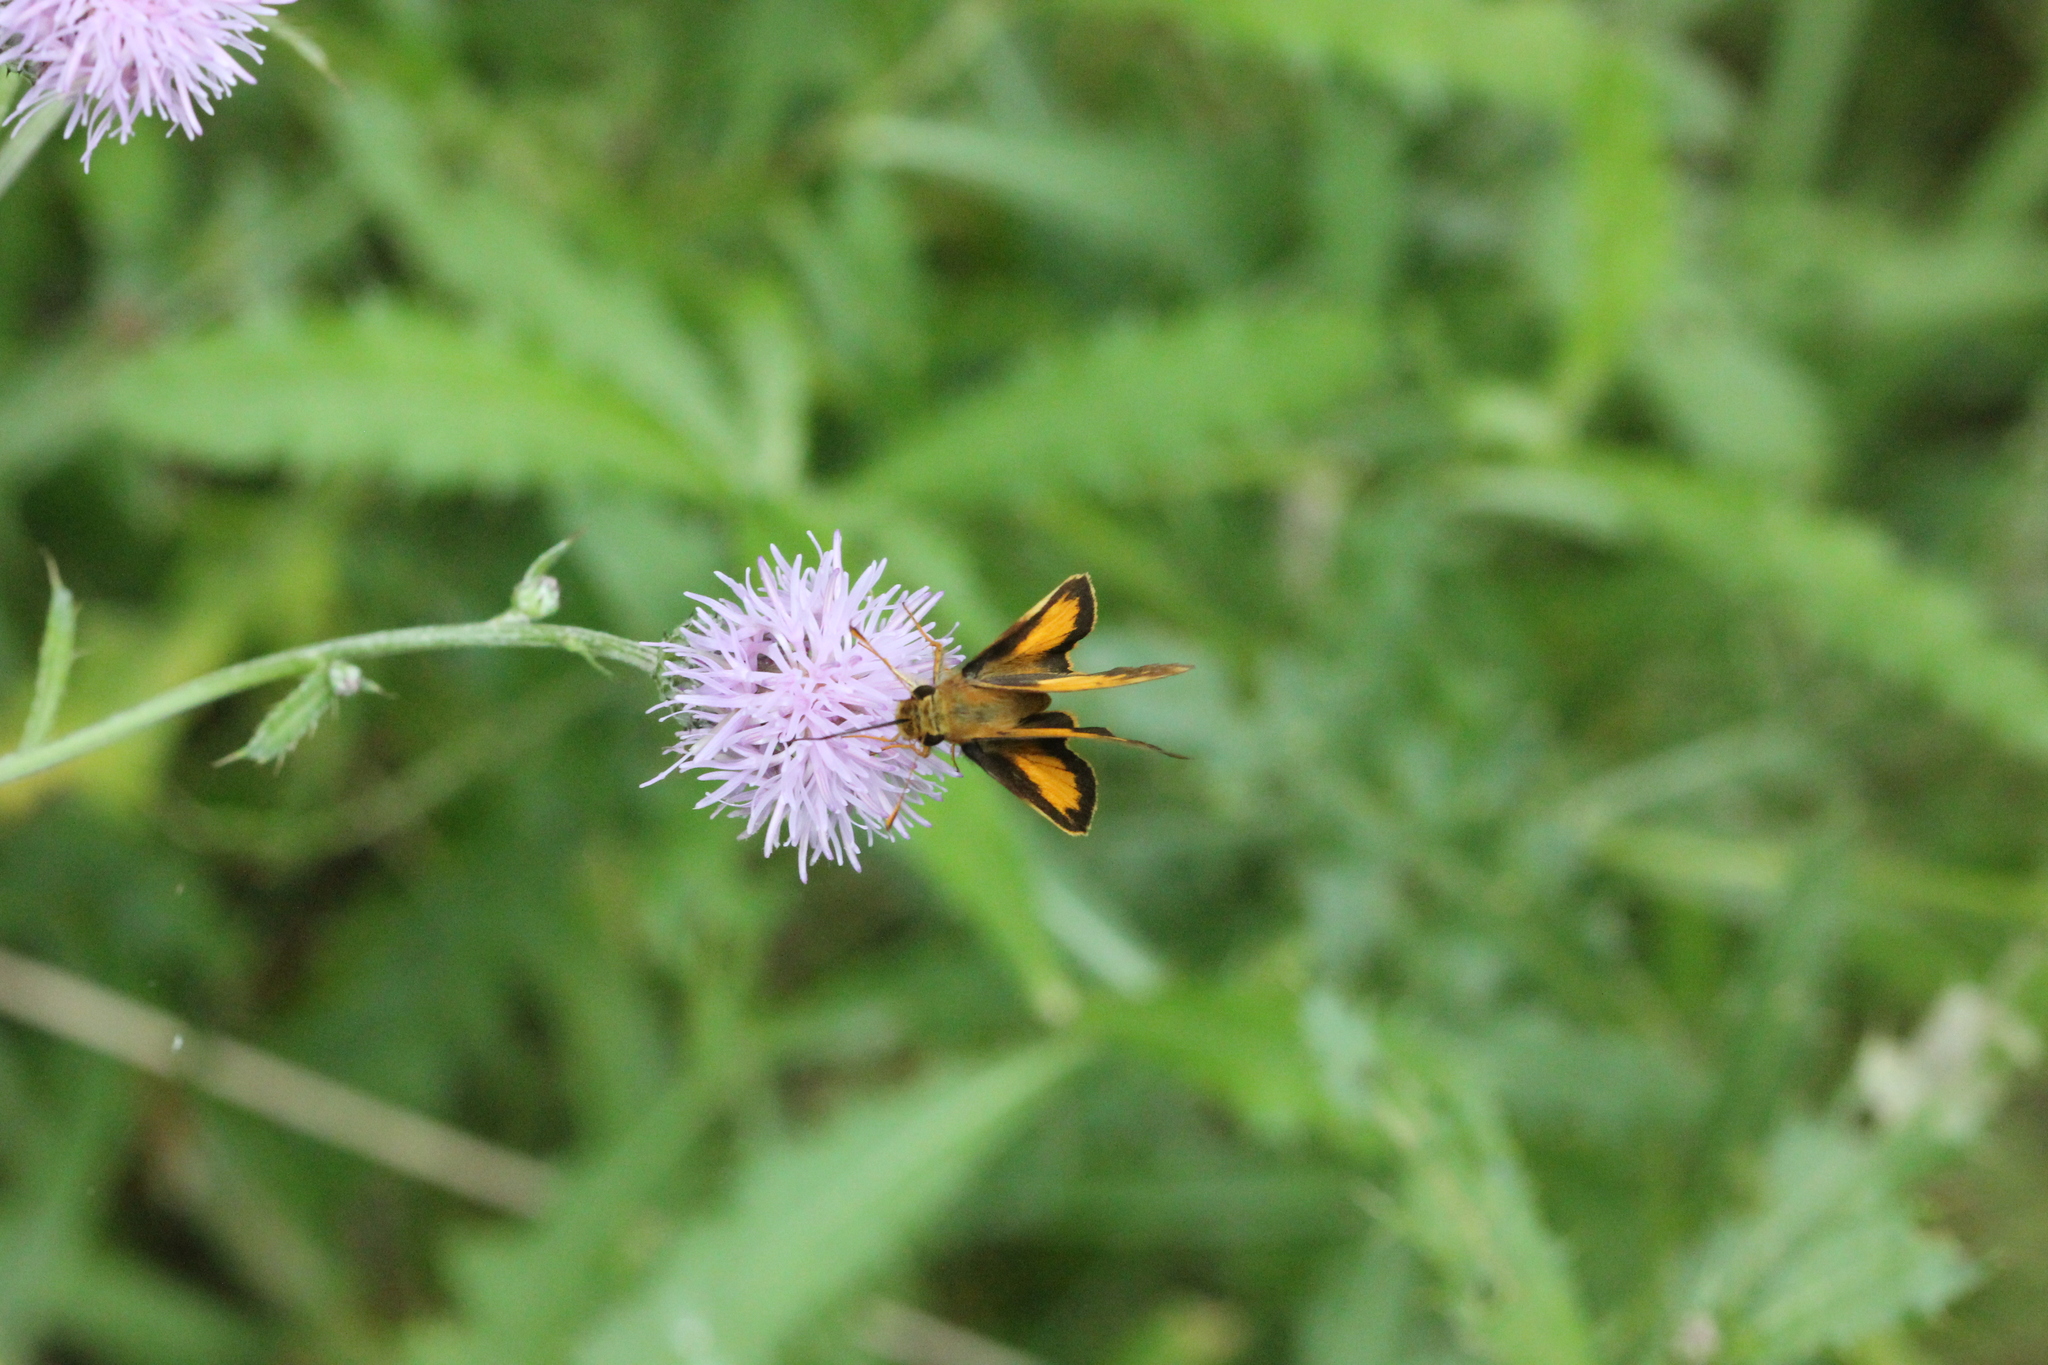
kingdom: Animalia
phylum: Arthropoda
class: Insecta
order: Lepidoptera
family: Hesperiidae
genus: Lon
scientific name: Lon zabulon
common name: Zabulon skipper
